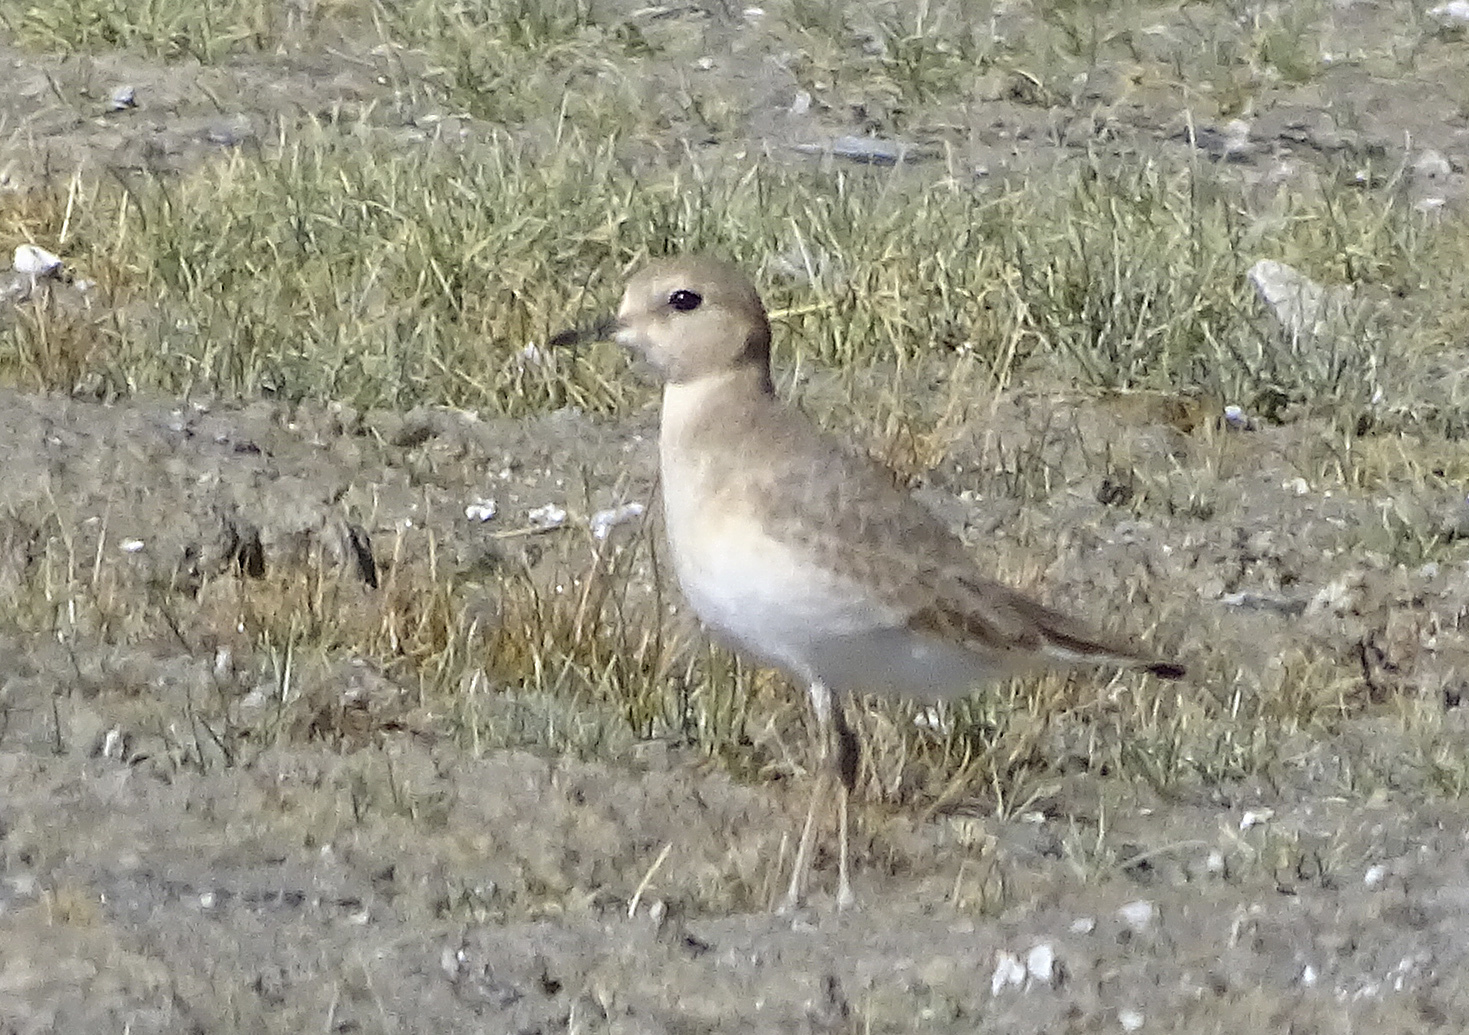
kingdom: Animalia
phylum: Chordata
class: Aves
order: Charadriiformes
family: Charadriidae
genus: Anarhynchus
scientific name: Anarhynchus
